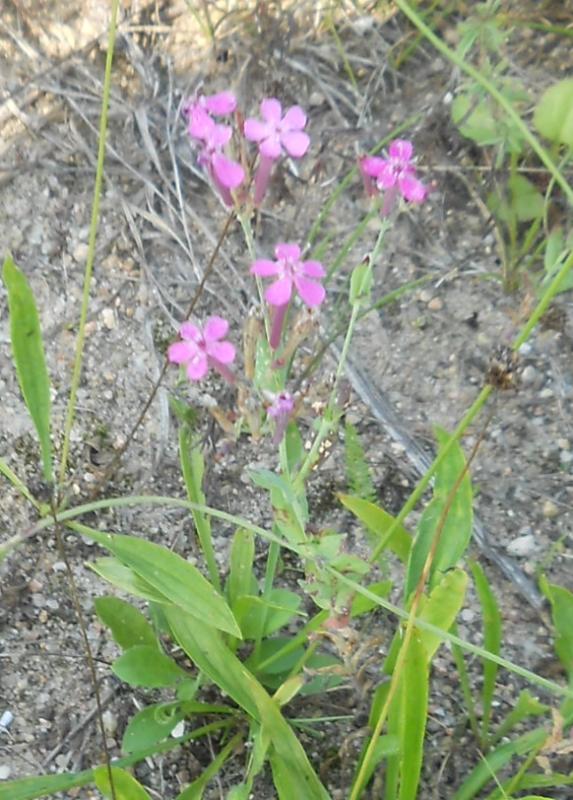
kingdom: Plantae
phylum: Tracheophyta
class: Magnoliopsida
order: Caryophyllales
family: Caryophyllaceae
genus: Atocion
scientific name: Atocion armeria
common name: Sweet william catchfly
